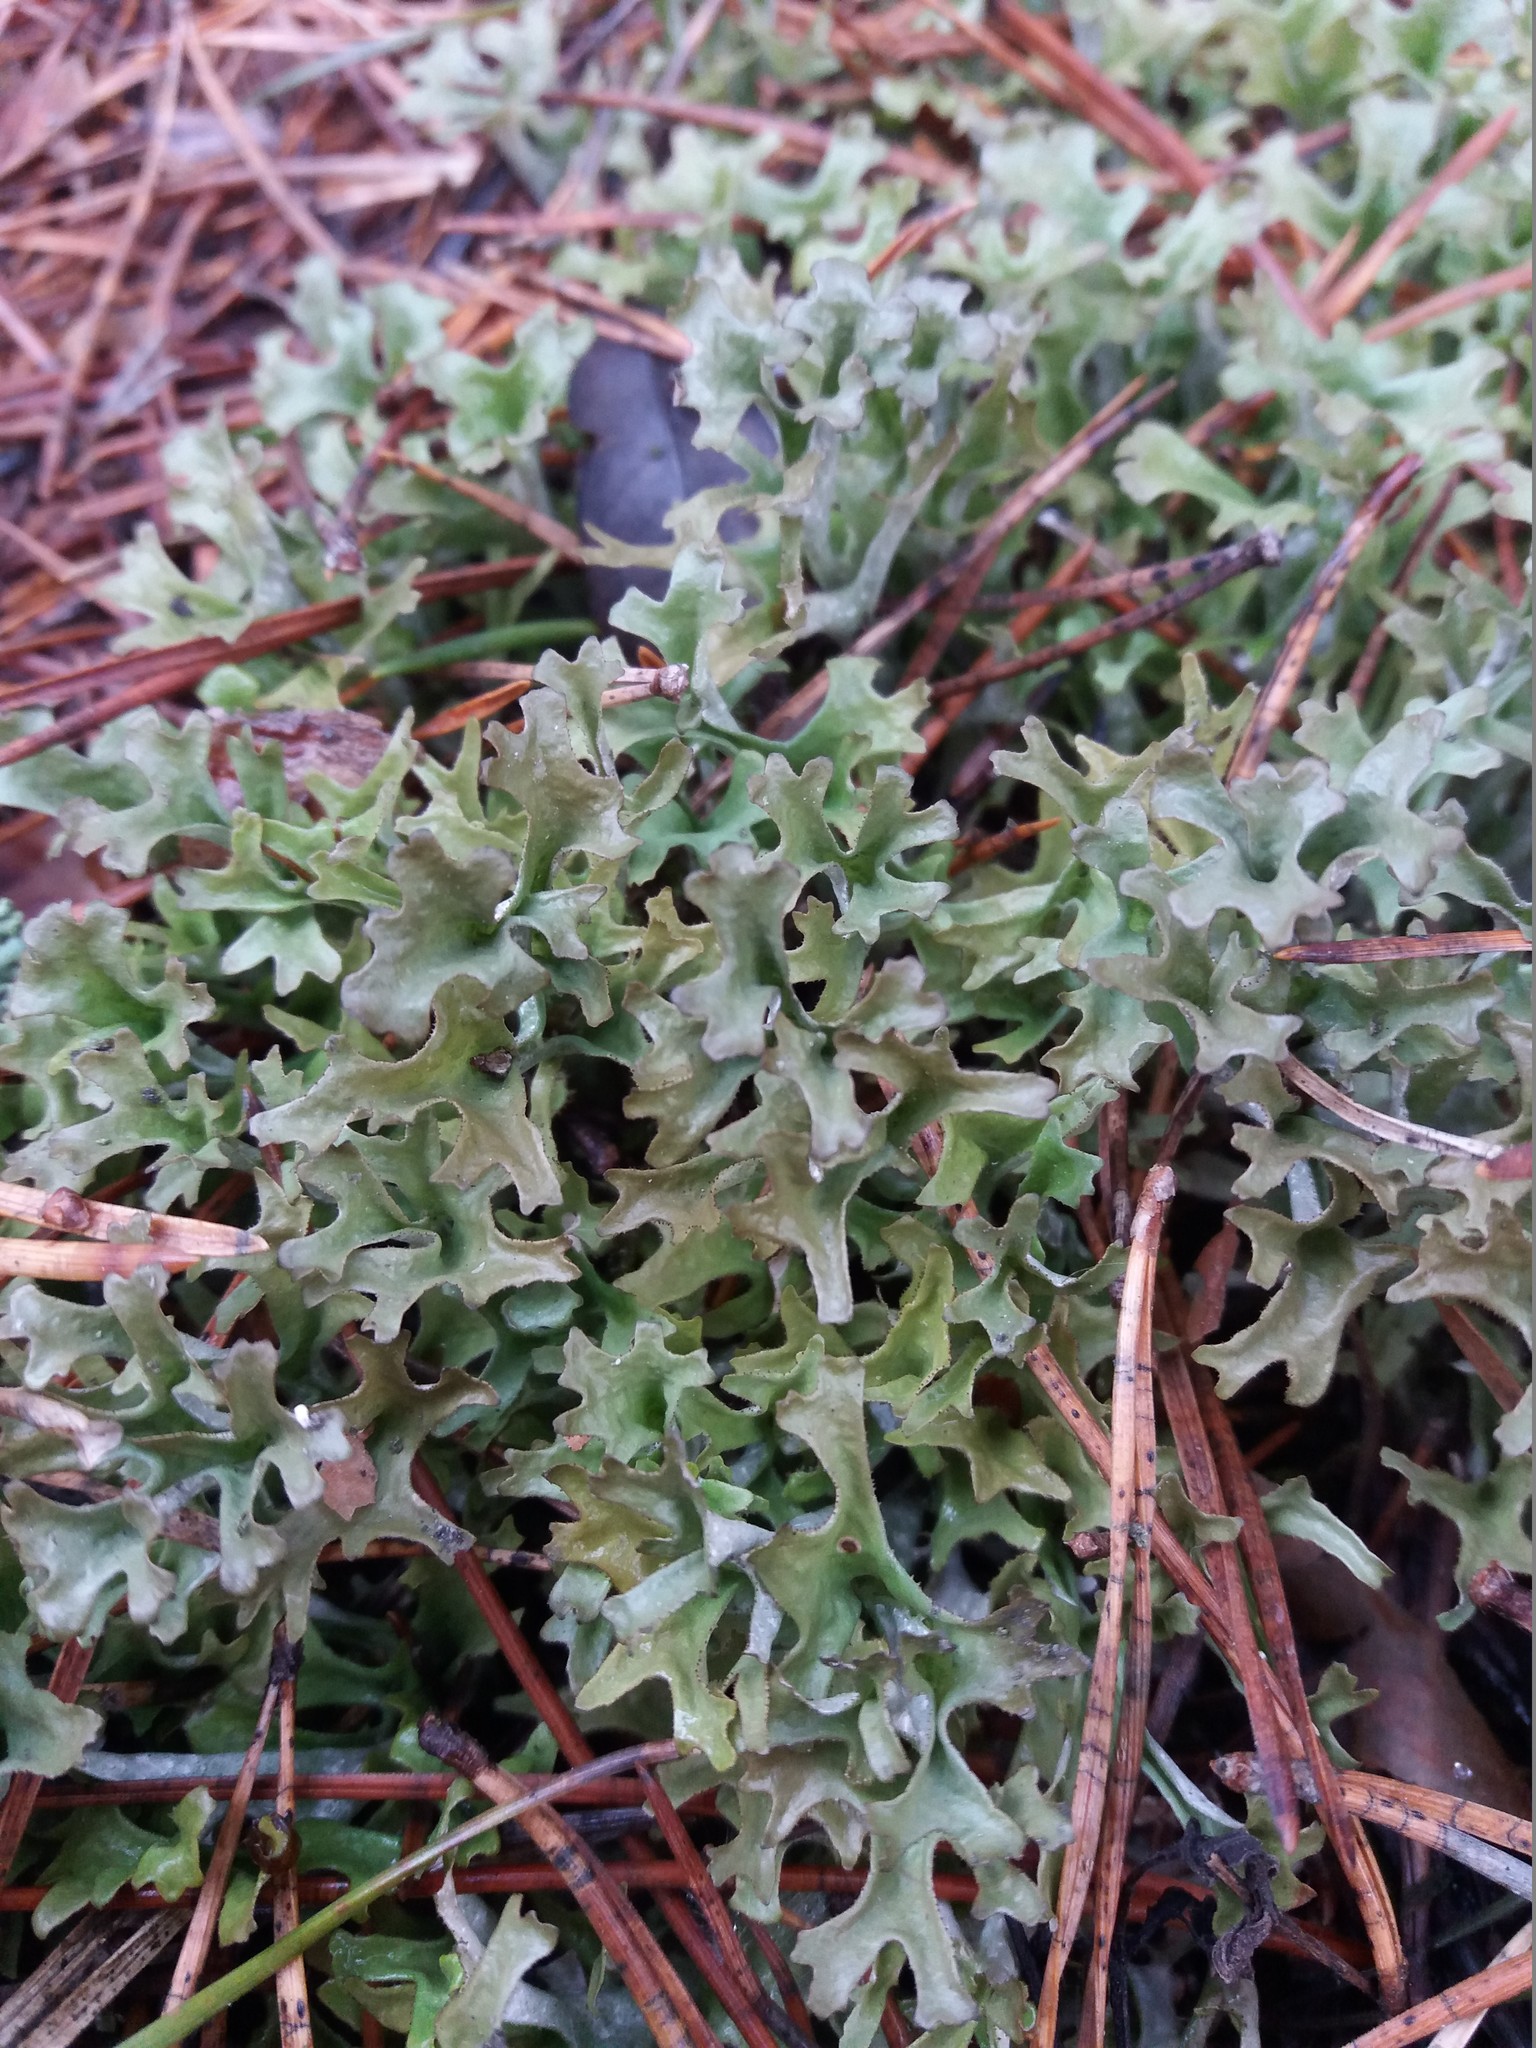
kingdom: Fungi
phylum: Ascomycota
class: Lecanoromycetes
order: Lecanorales
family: Parmeliaceae
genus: Cetraria
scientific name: Cetraria islandica
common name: Iceland lichen
